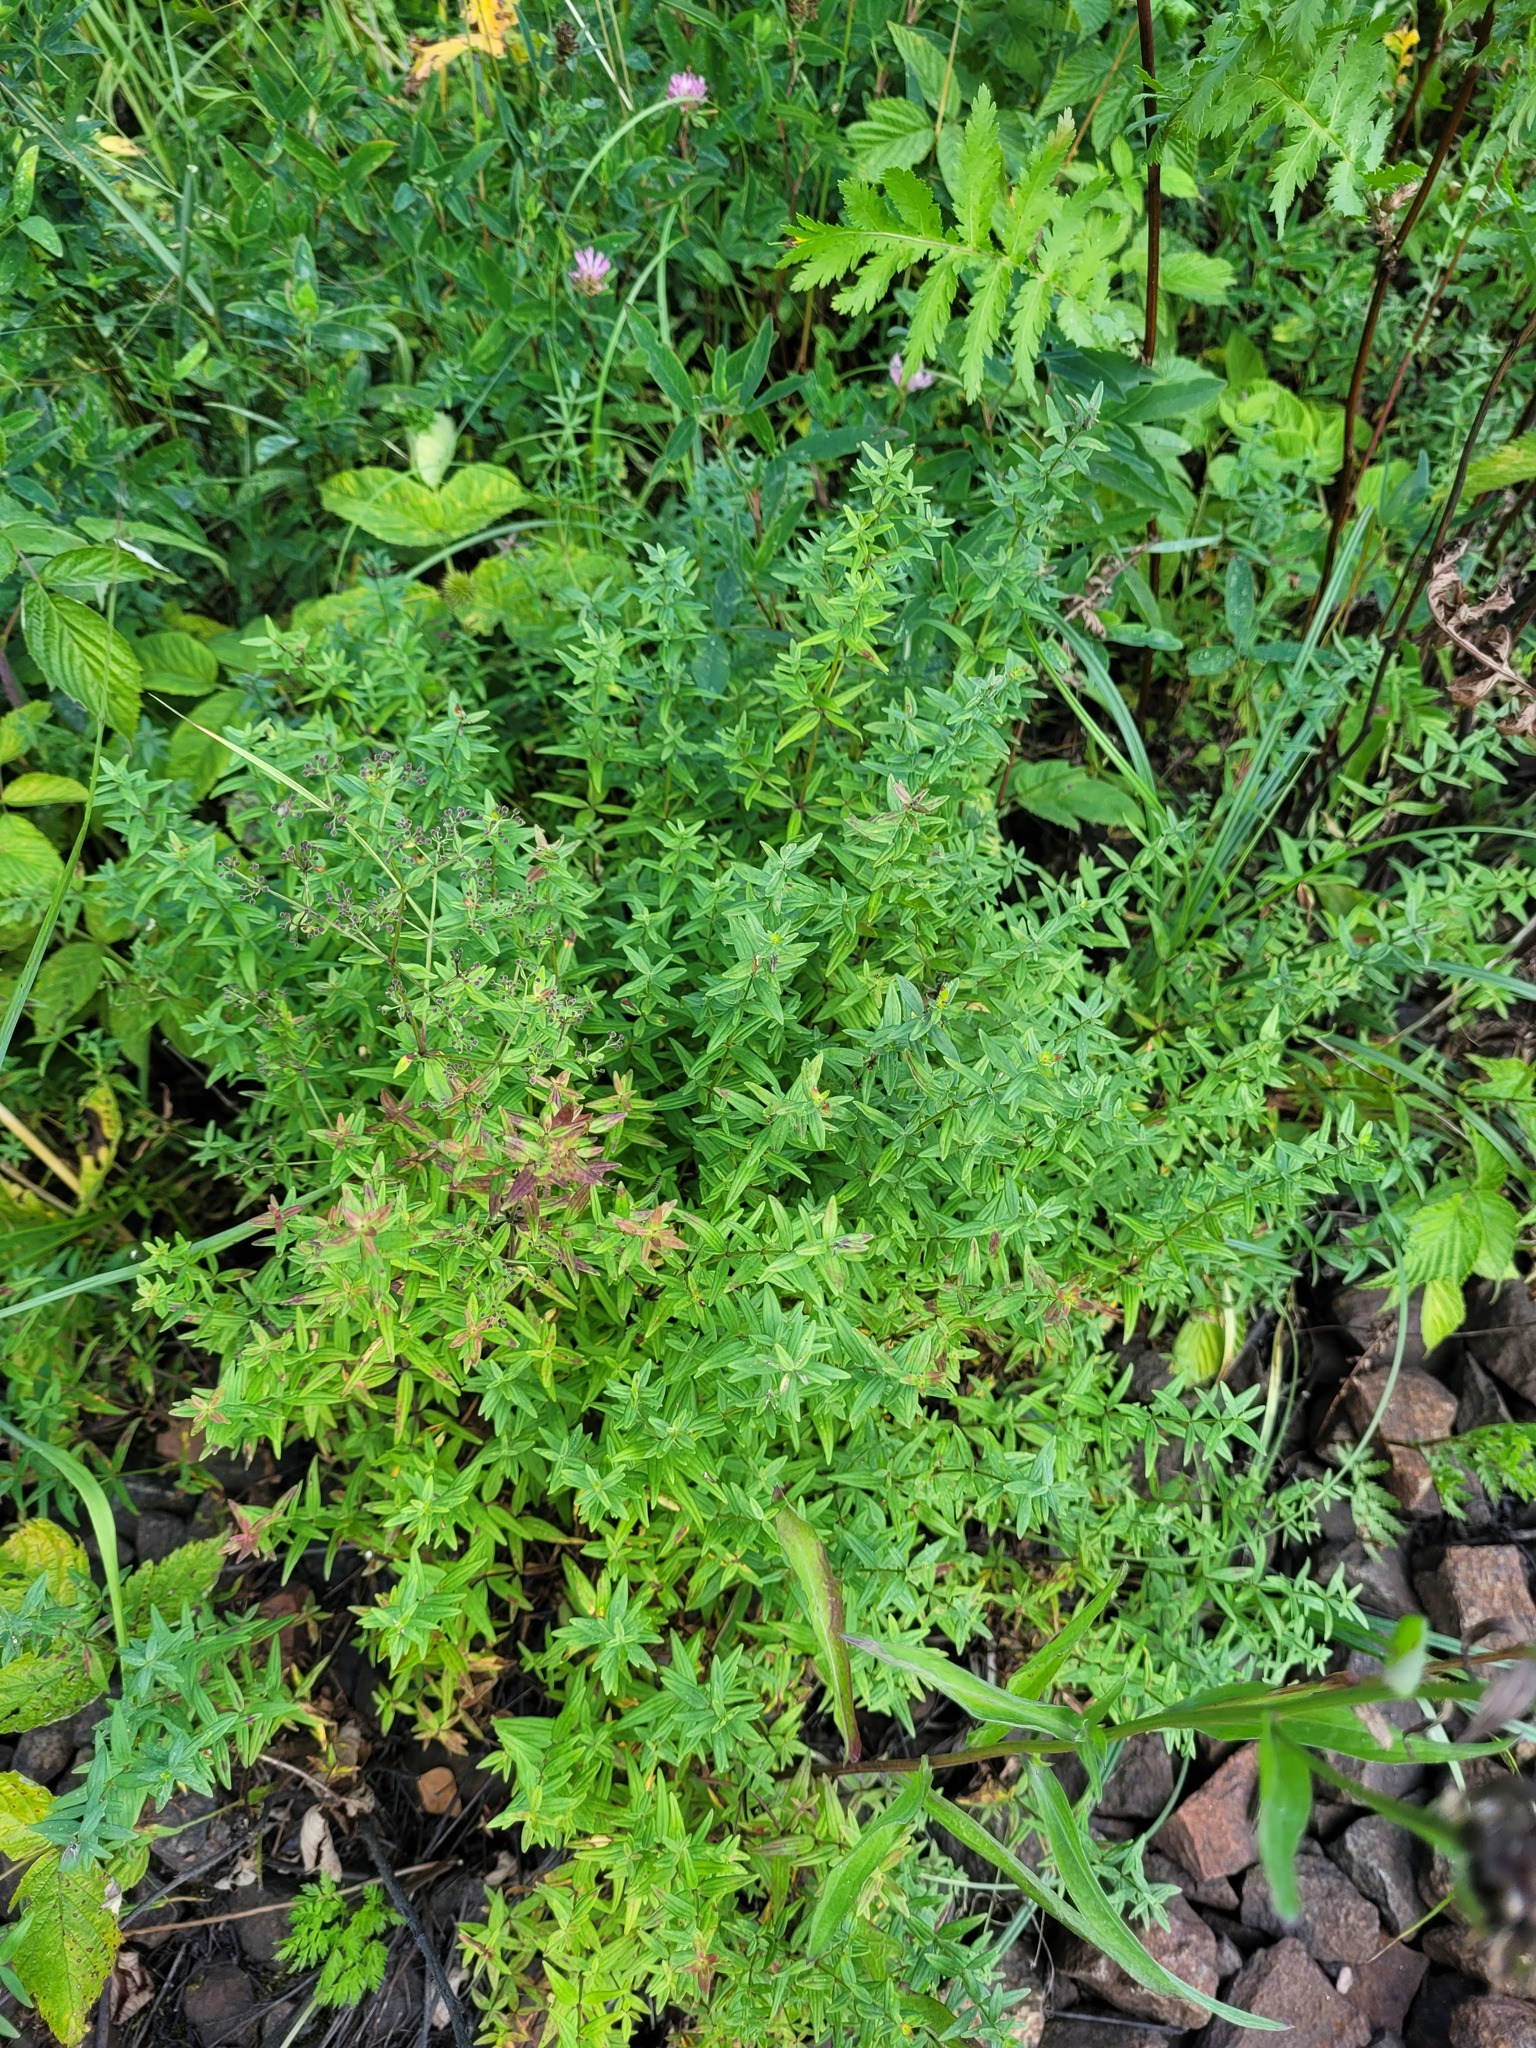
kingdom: Plantae
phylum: Tracheophyta
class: Magnoliopsida
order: Gentianales
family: Rubiaceae
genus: Galium
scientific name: Galium boreale
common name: Northern bedstraw
